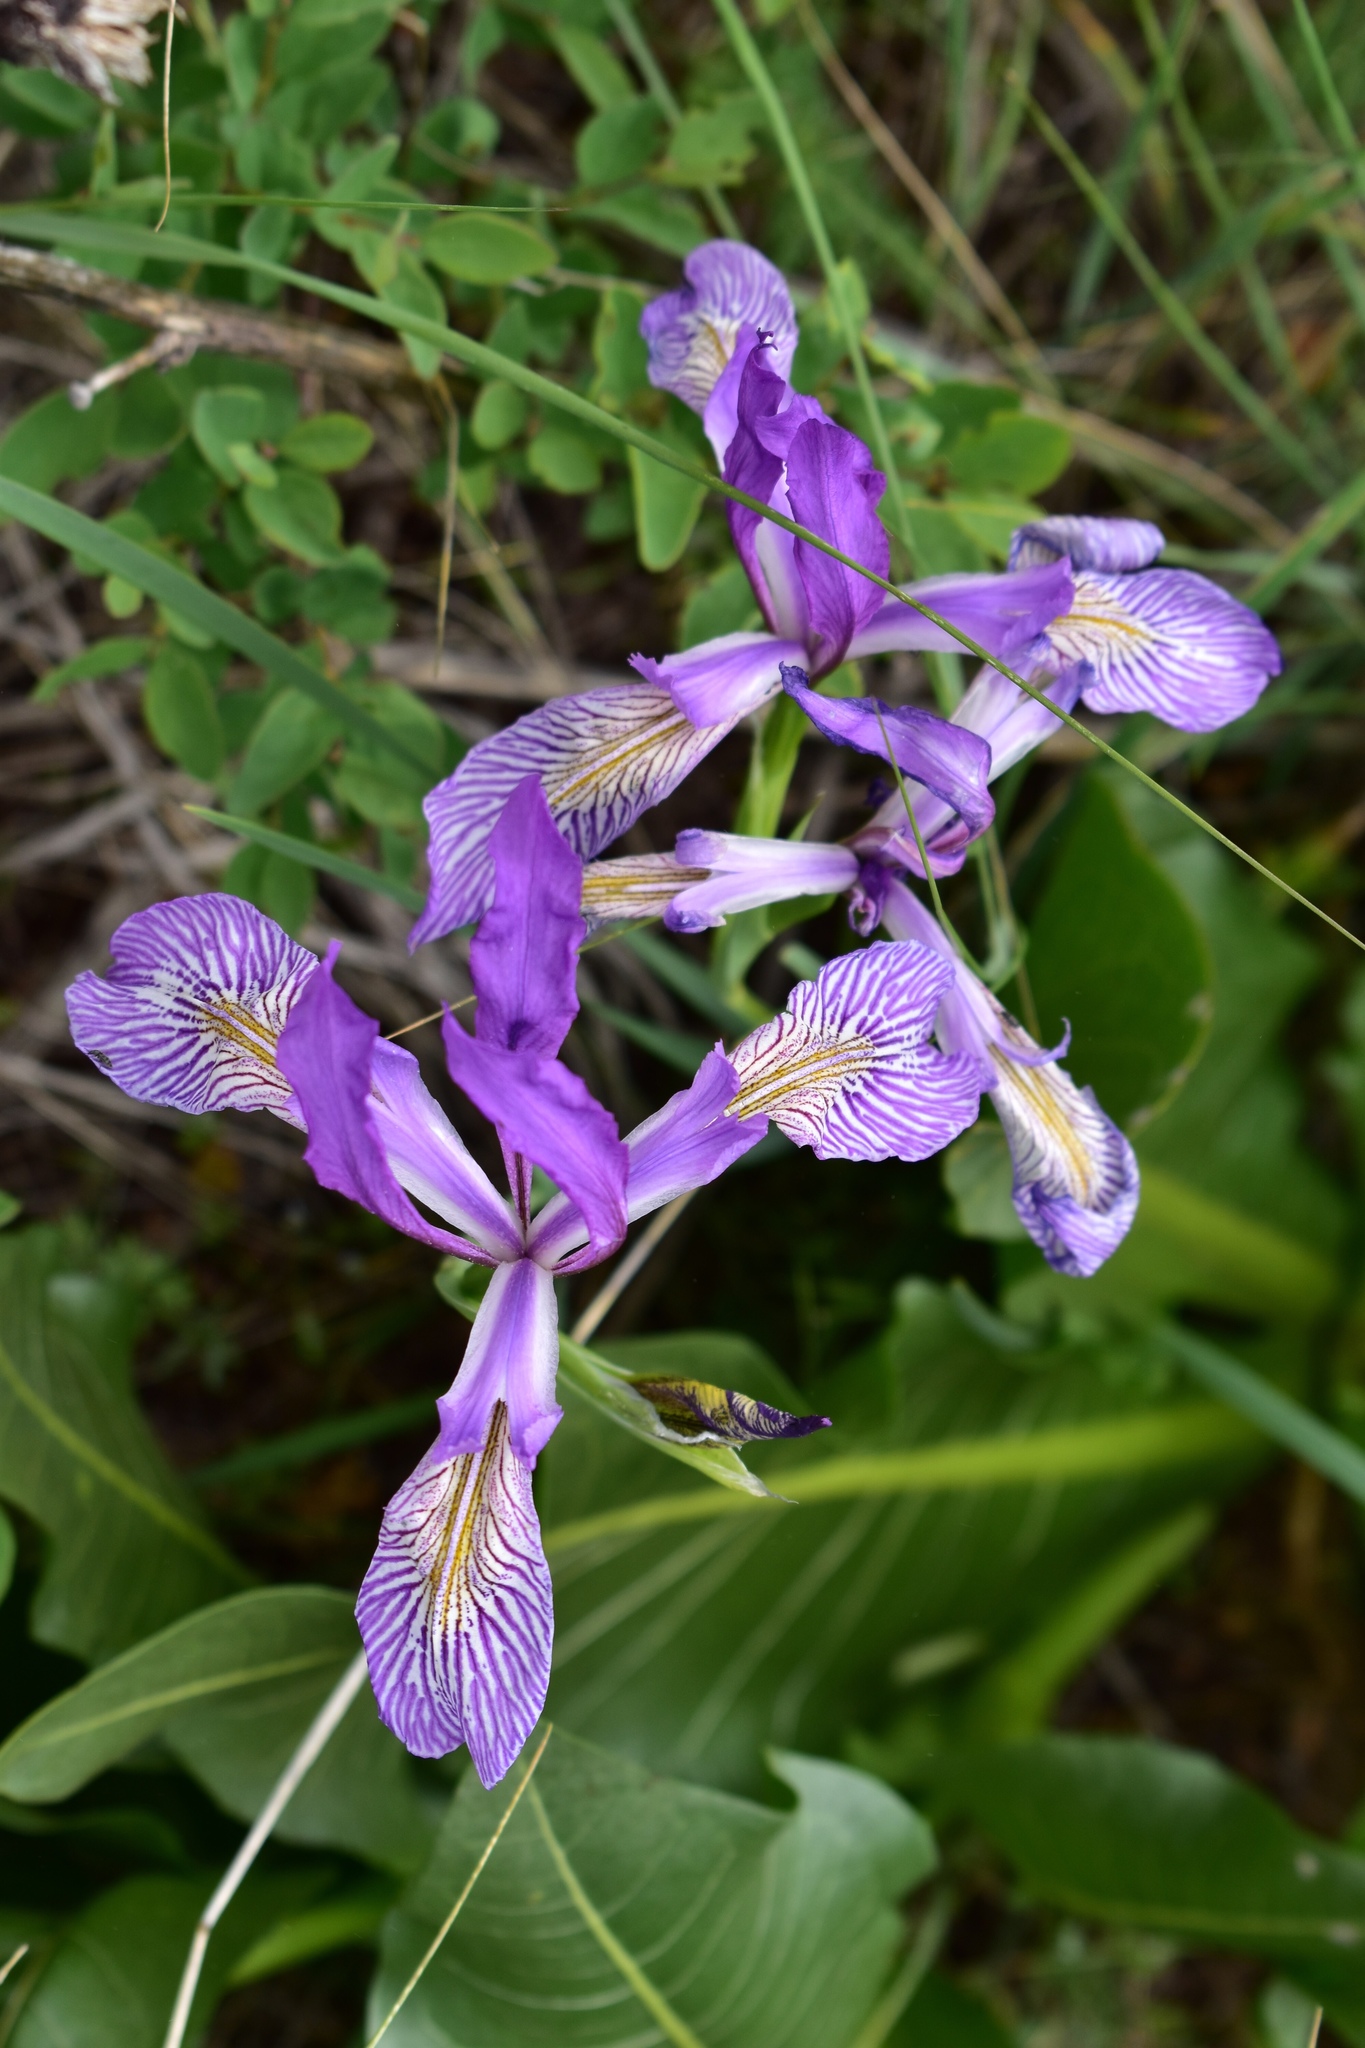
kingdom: Plantae
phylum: Tracheophyta
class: Liliopsida
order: Asparagales
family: Iridaceae
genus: Iris
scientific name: Iris missouriensis
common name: Rocky mountain iris
